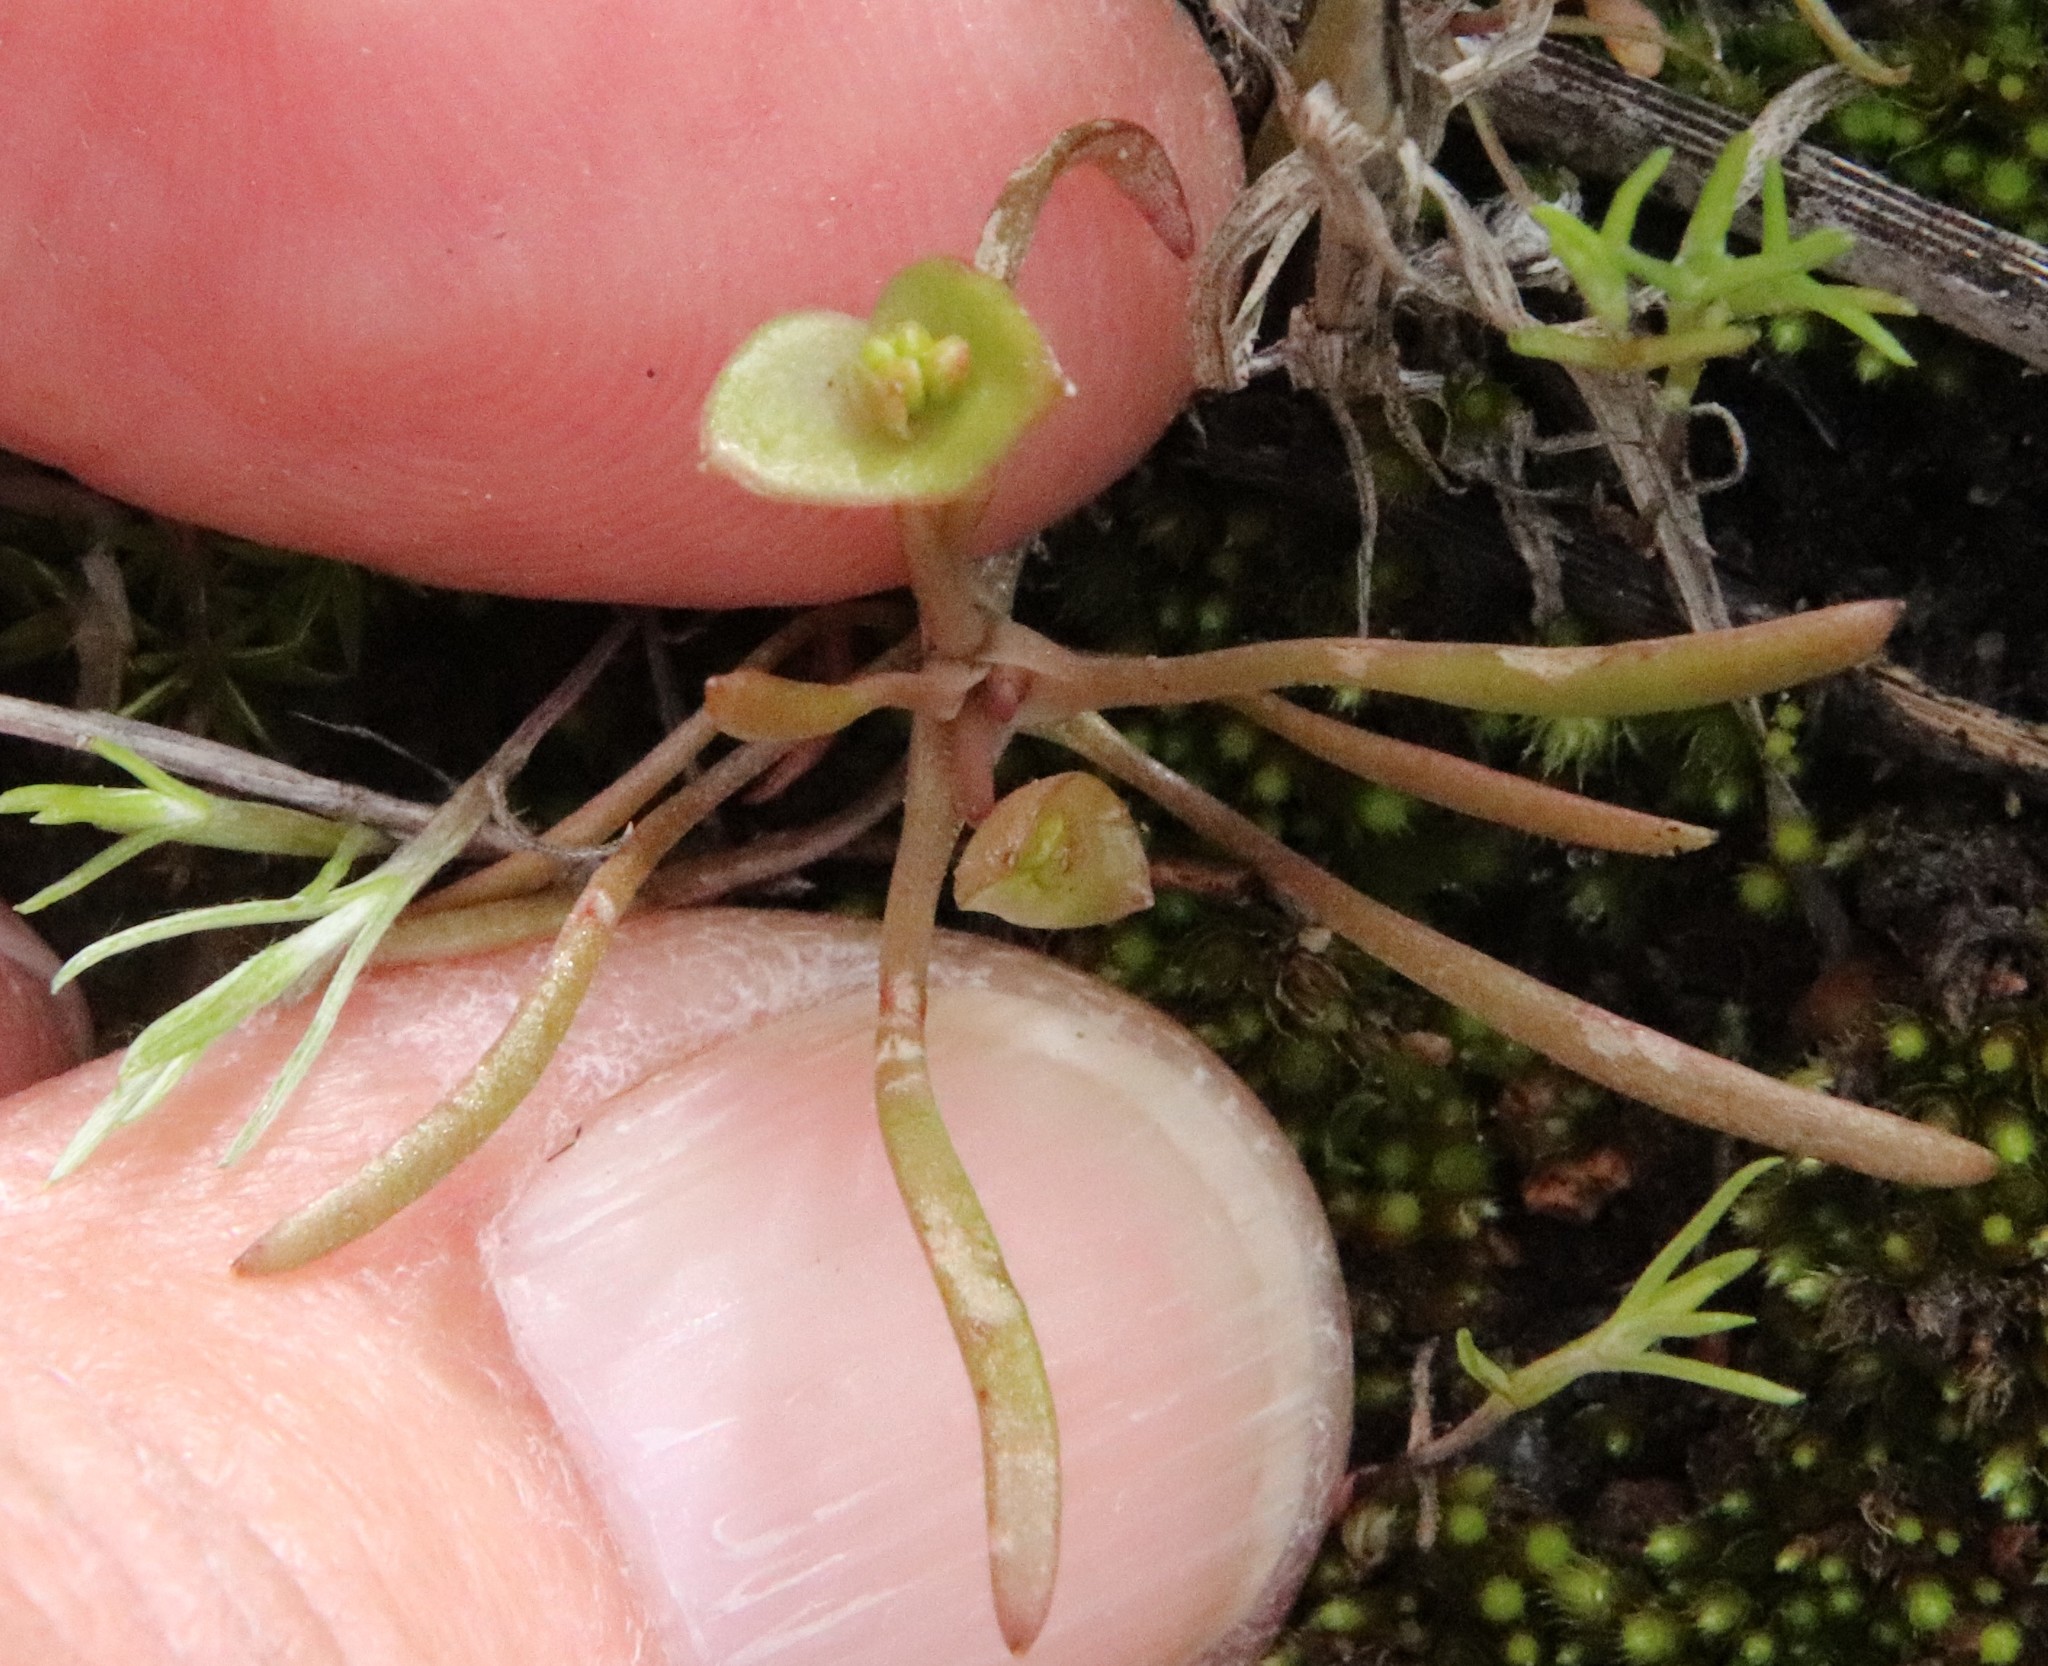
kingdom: Plantae
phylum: Tracheophyta
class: Magnoliopsida
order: Caryophyllales
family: Montiaceae
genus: Claytonia
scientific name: Claytonia parviflora
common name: Indian-lettuce
